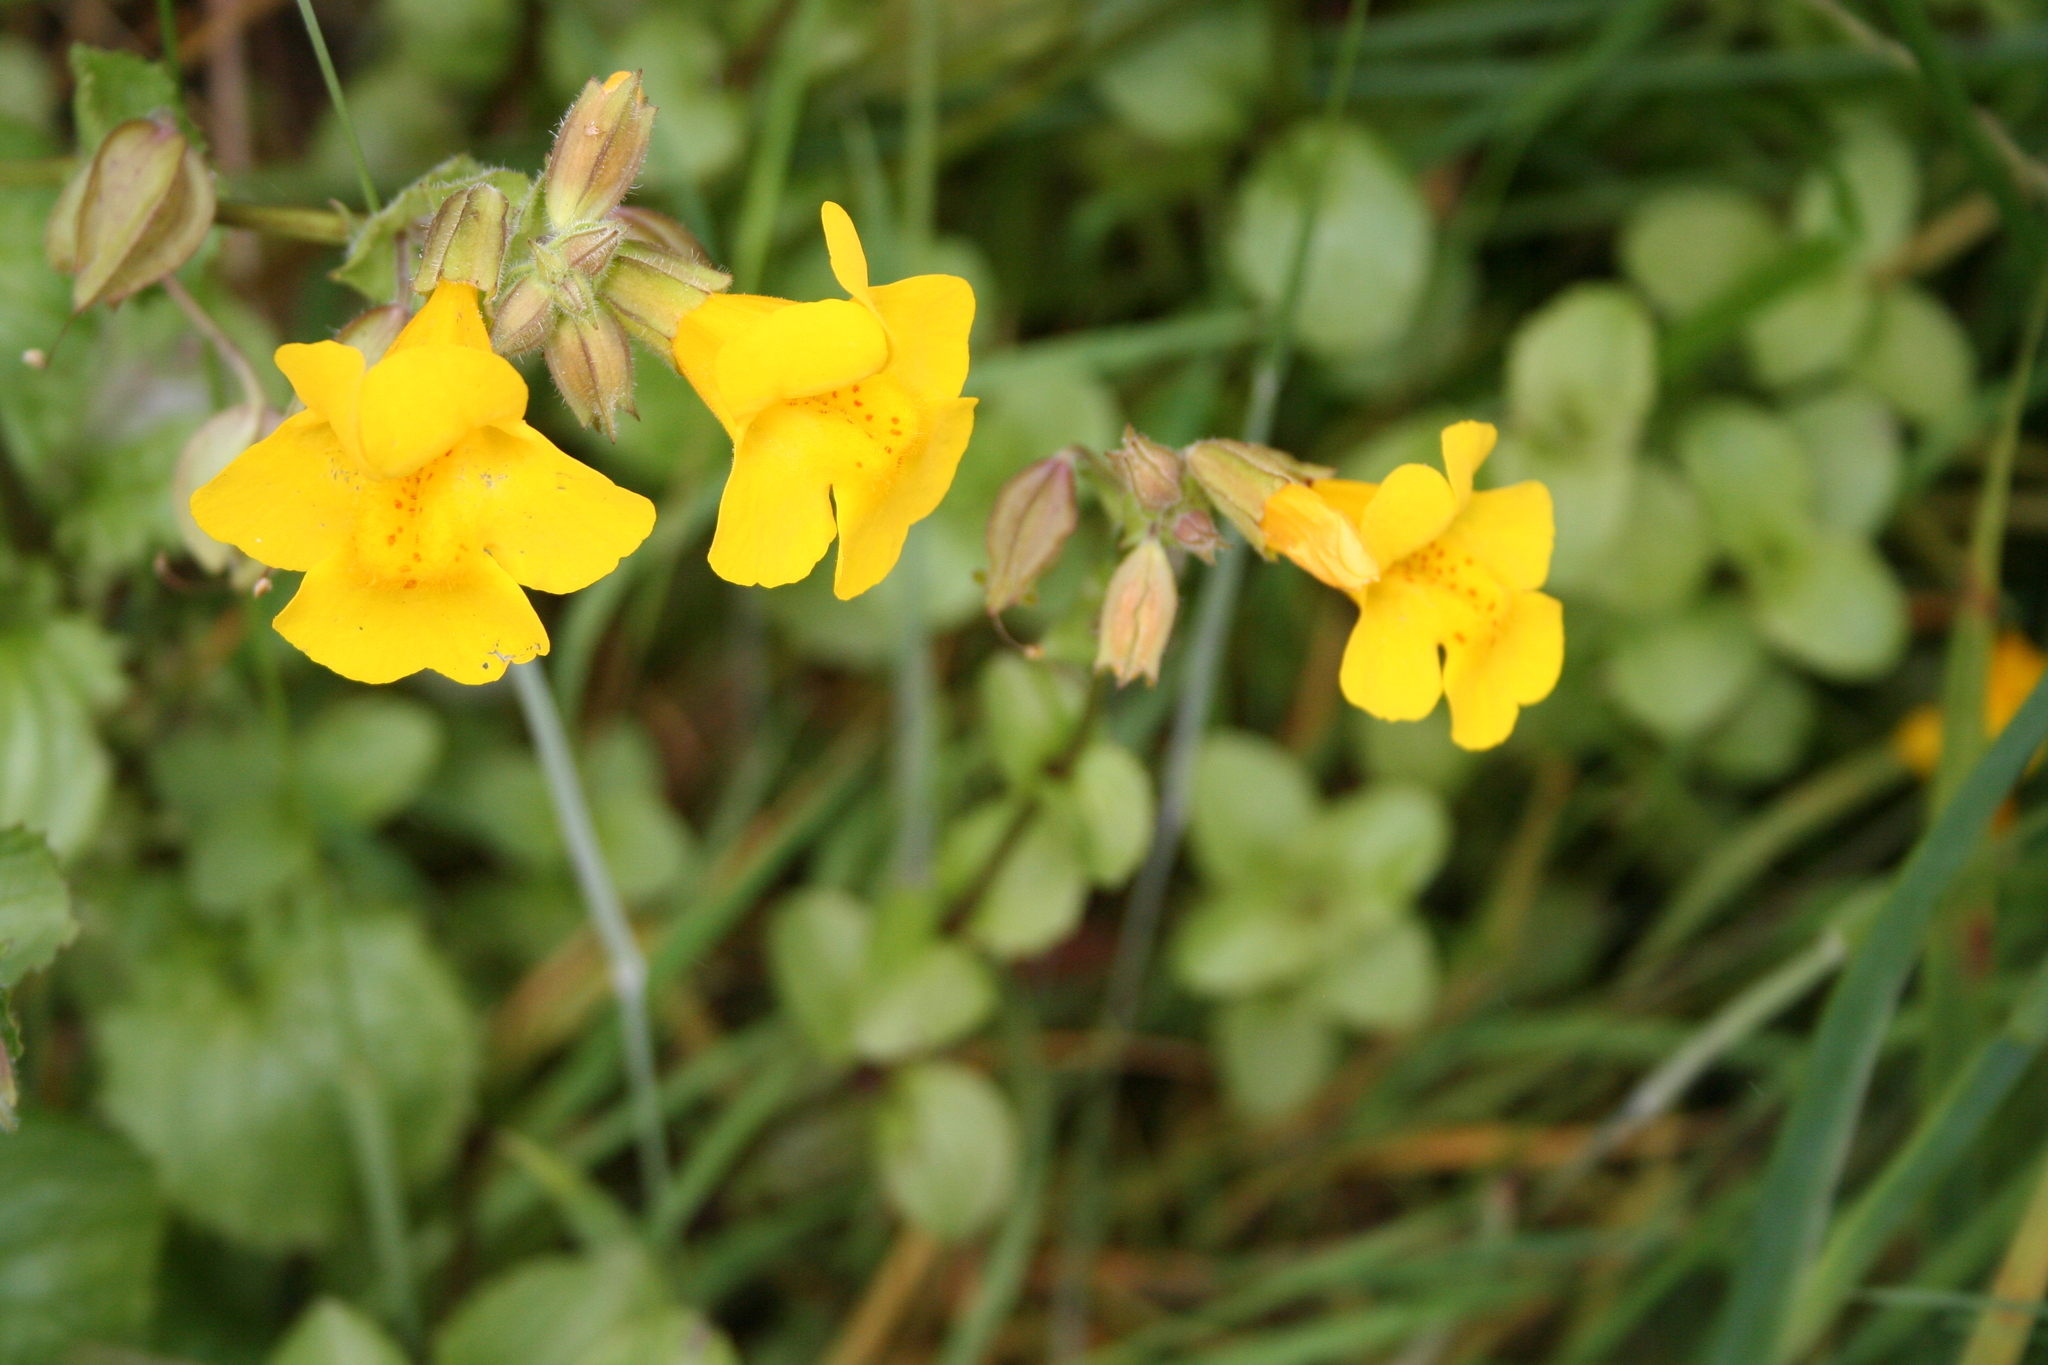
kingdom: Plantae
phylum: Tracheophyta
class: Magnoliopsida
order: Lamiales
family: Phrymaceae
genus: Erythranthe
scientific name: Erythranthe guttata
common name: Monkeyflower
